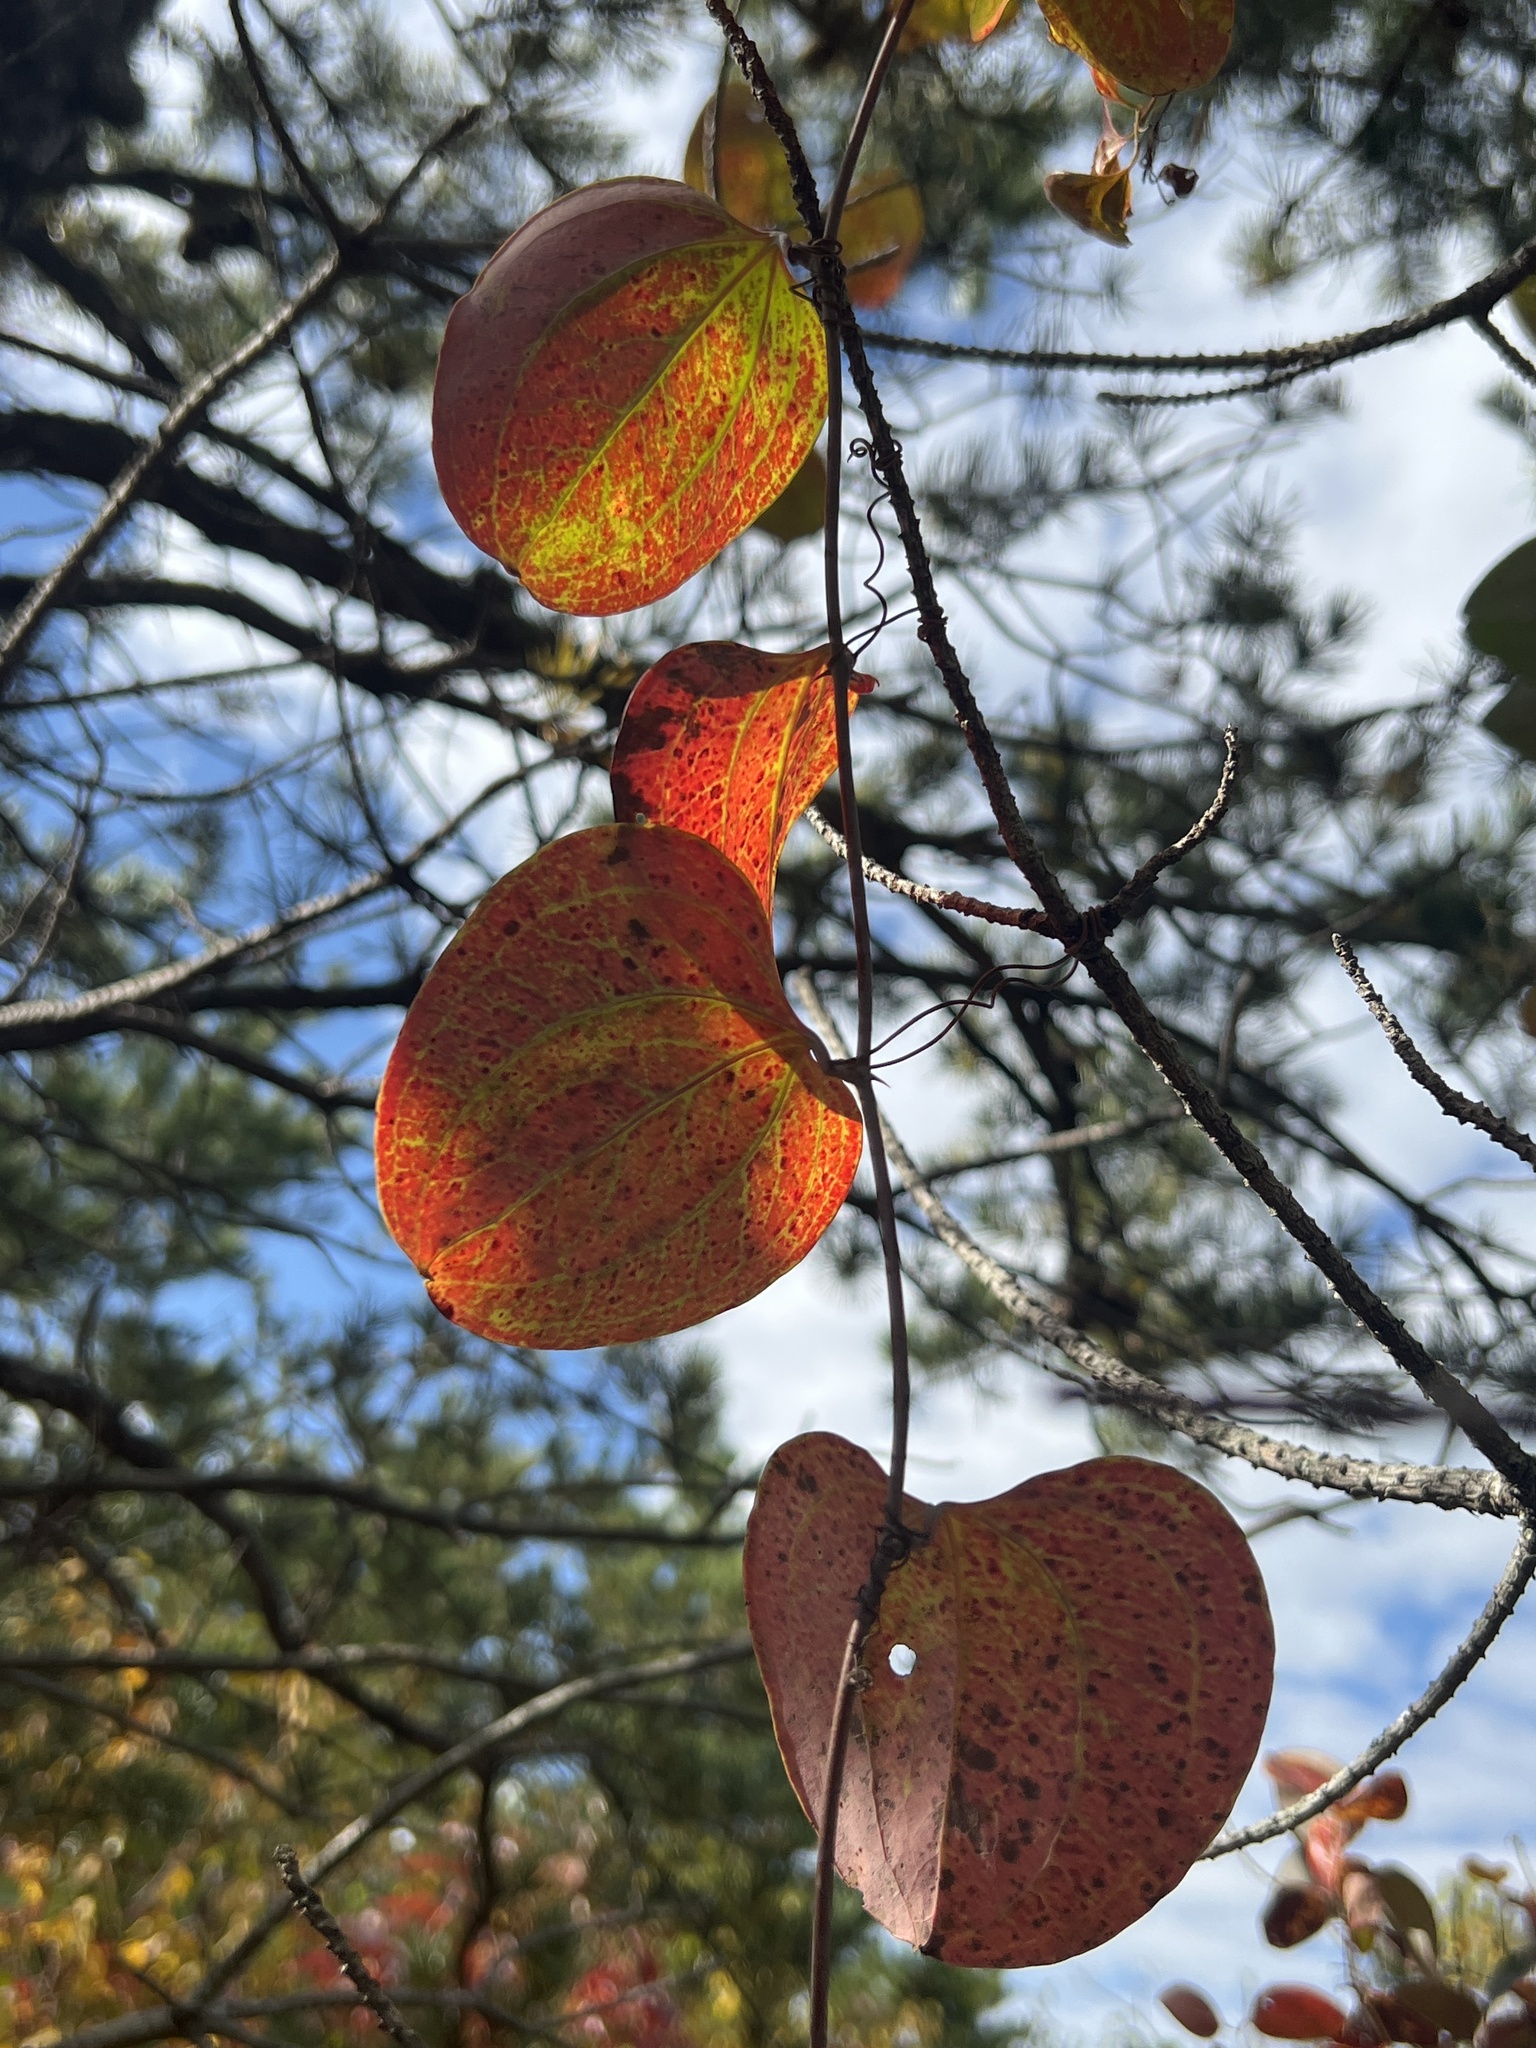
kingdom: Plantae
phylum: Tracheophyta
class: Liliopsida
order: Liliales
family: Smilacaceae
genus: Smilax
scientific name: Smilax glauca
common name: Cat greenbrier
